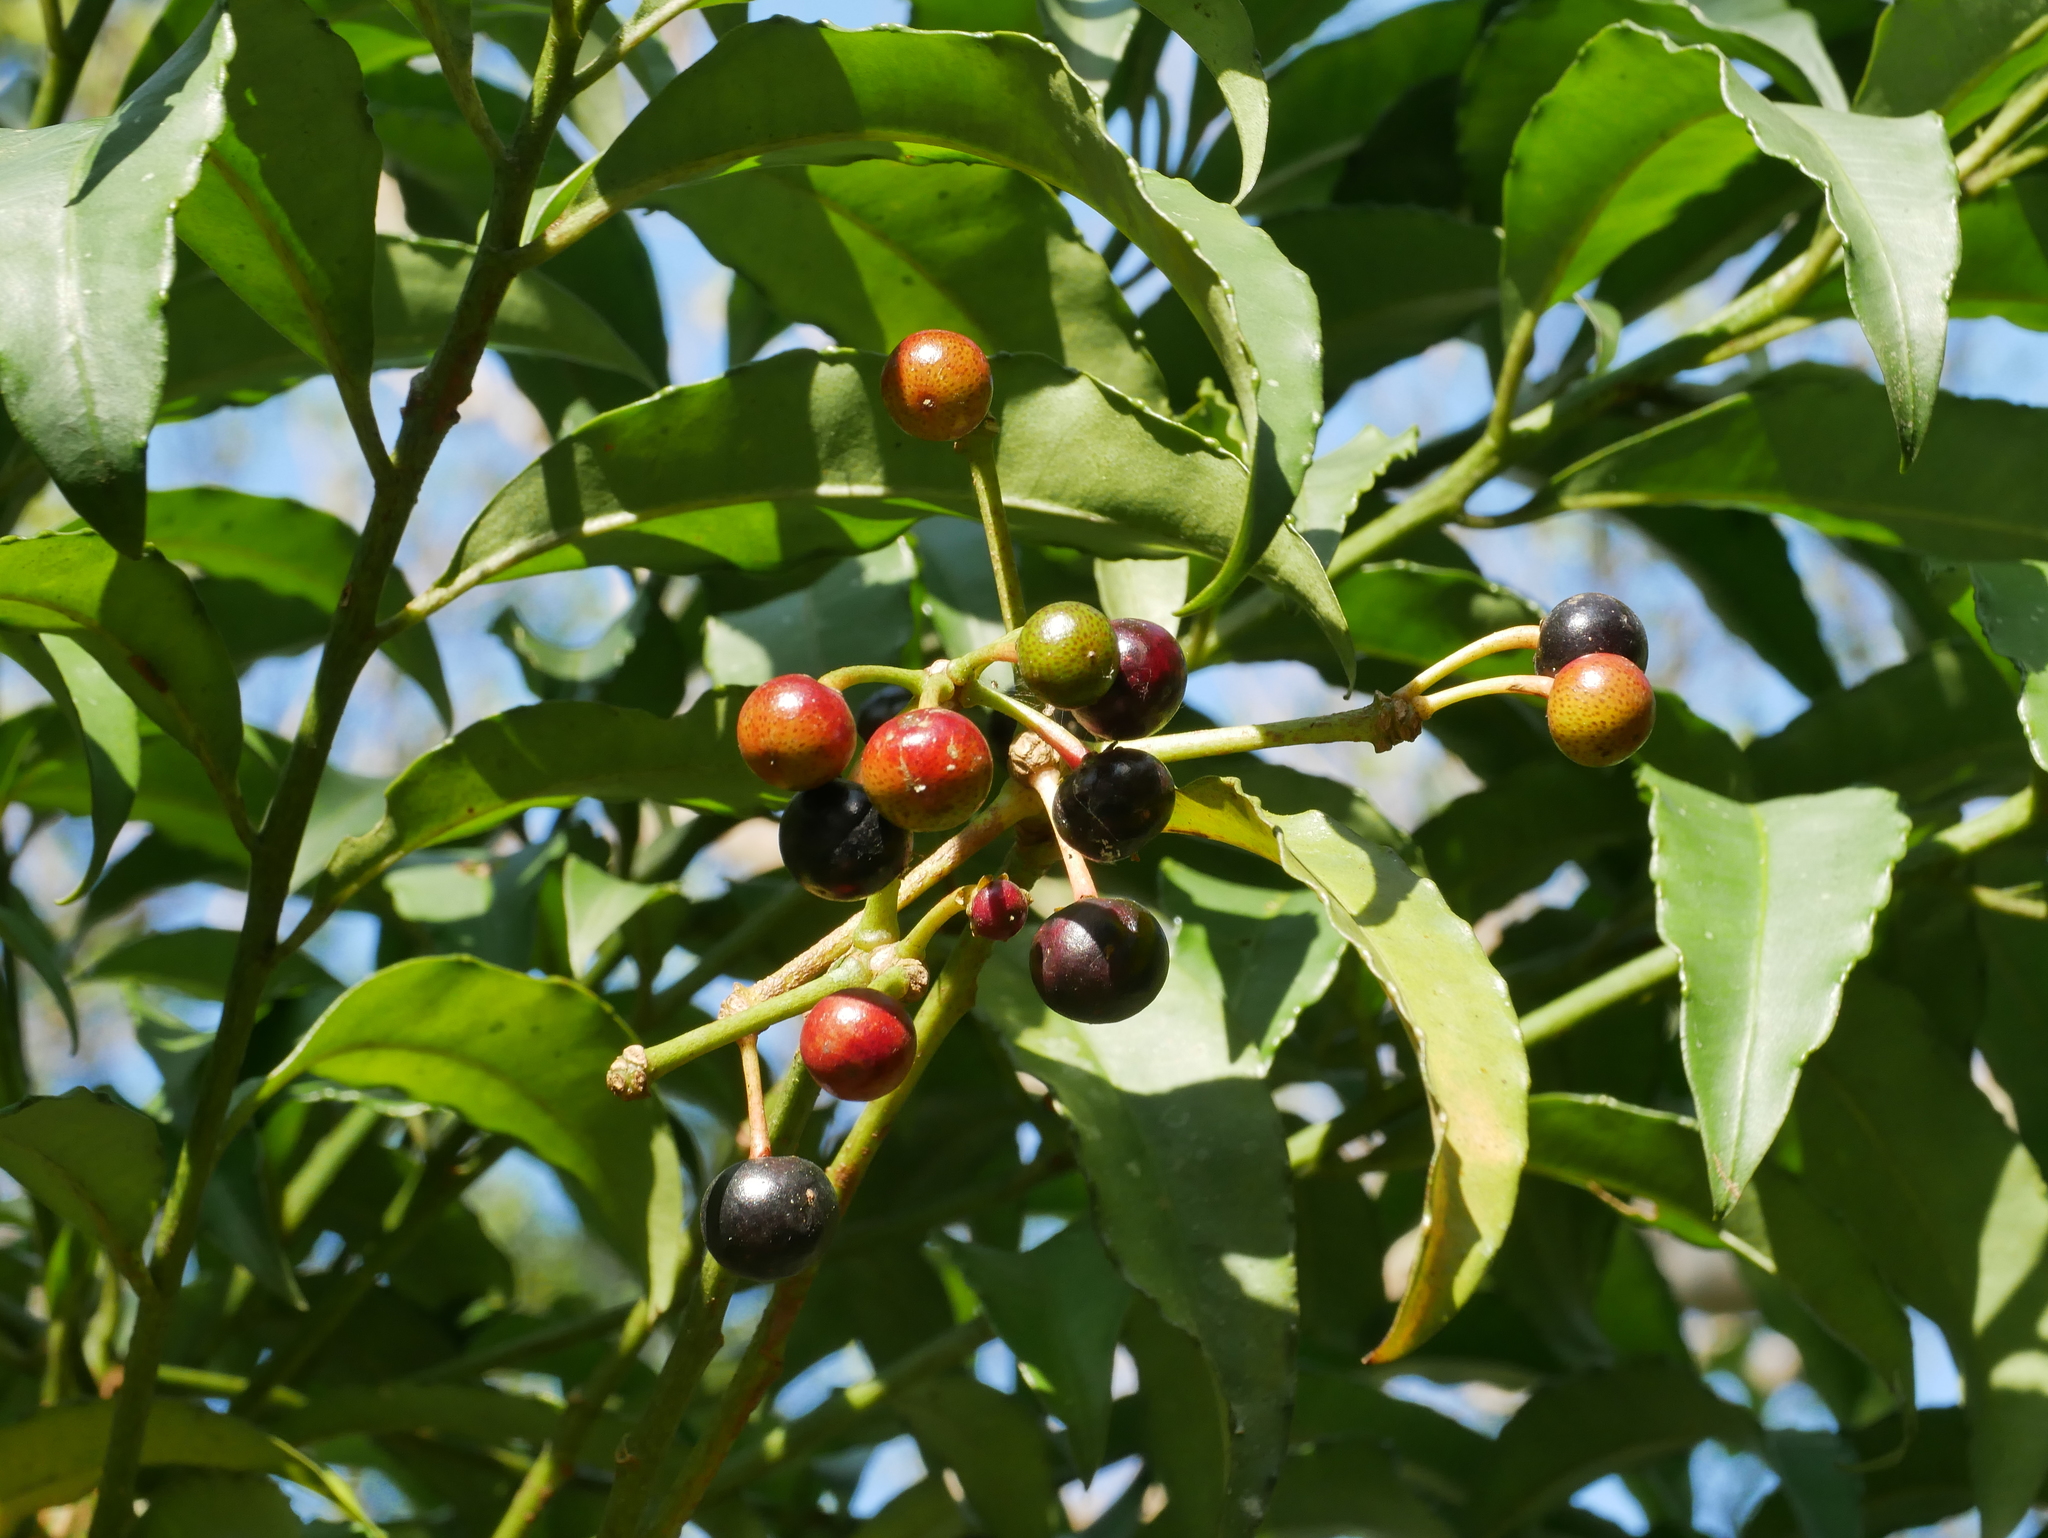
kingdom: Plantae
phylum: Tracheophyta
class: Magnoliopsida
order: Ericales
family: Primulaceae
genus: Ardisia
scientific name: Ardisia polysticta
